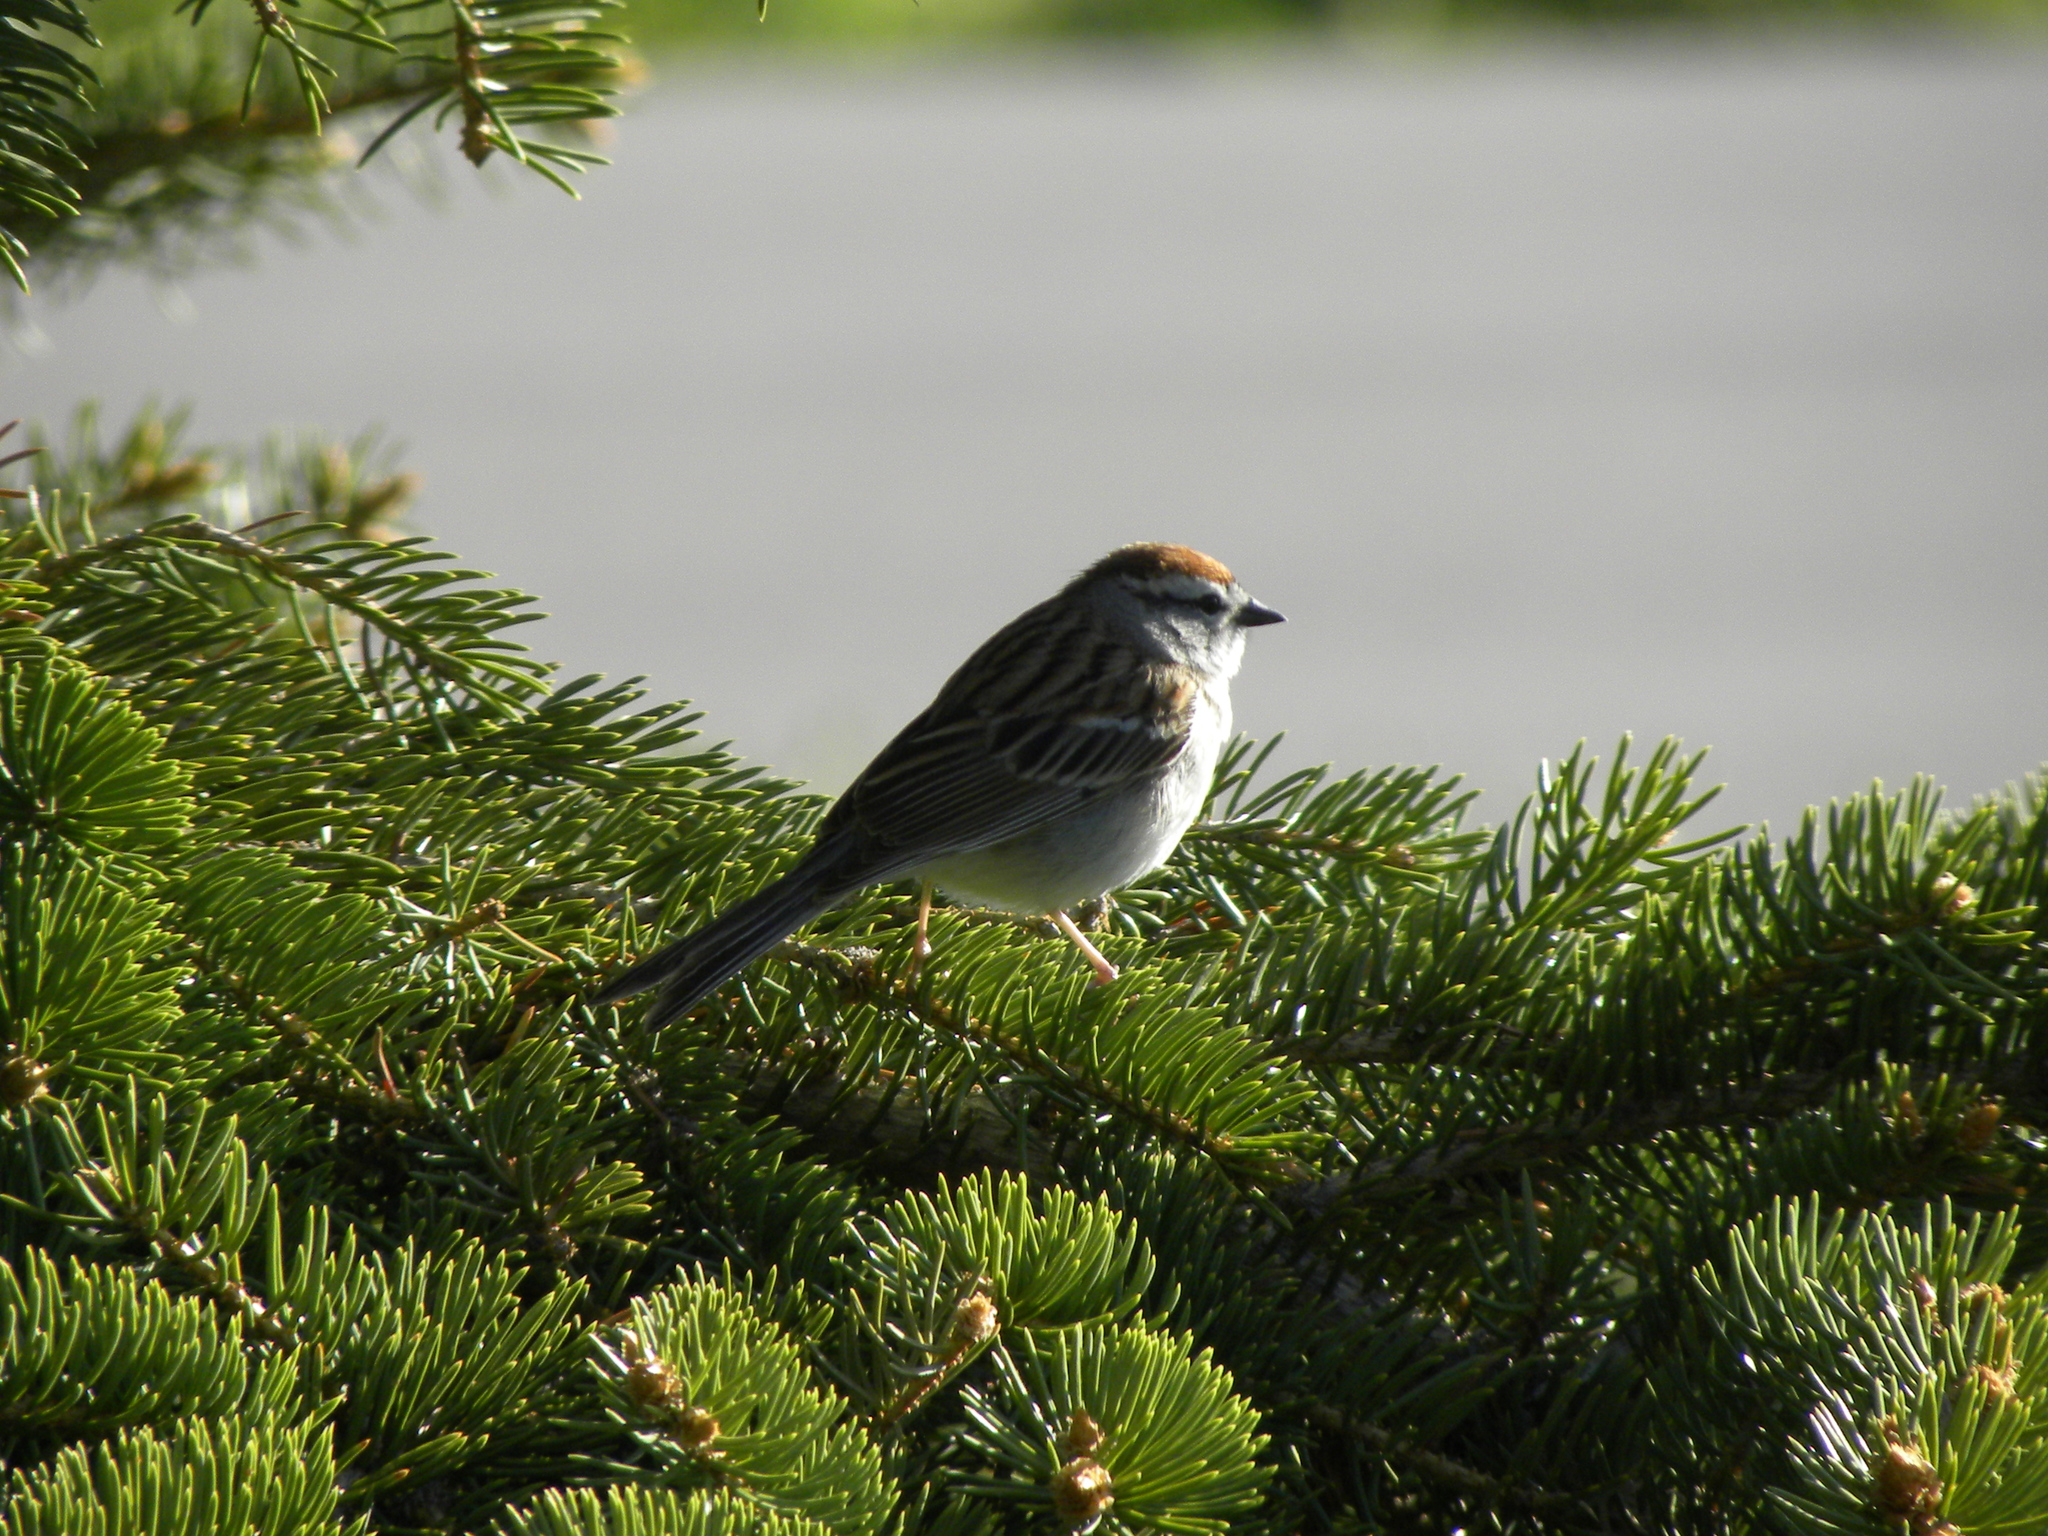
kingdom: Animalia
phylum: Chordata
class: Aves
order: Passeriformes
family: Passerellidae
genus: Spizella
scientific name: Spizella passerina
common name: Chipping sparrow
